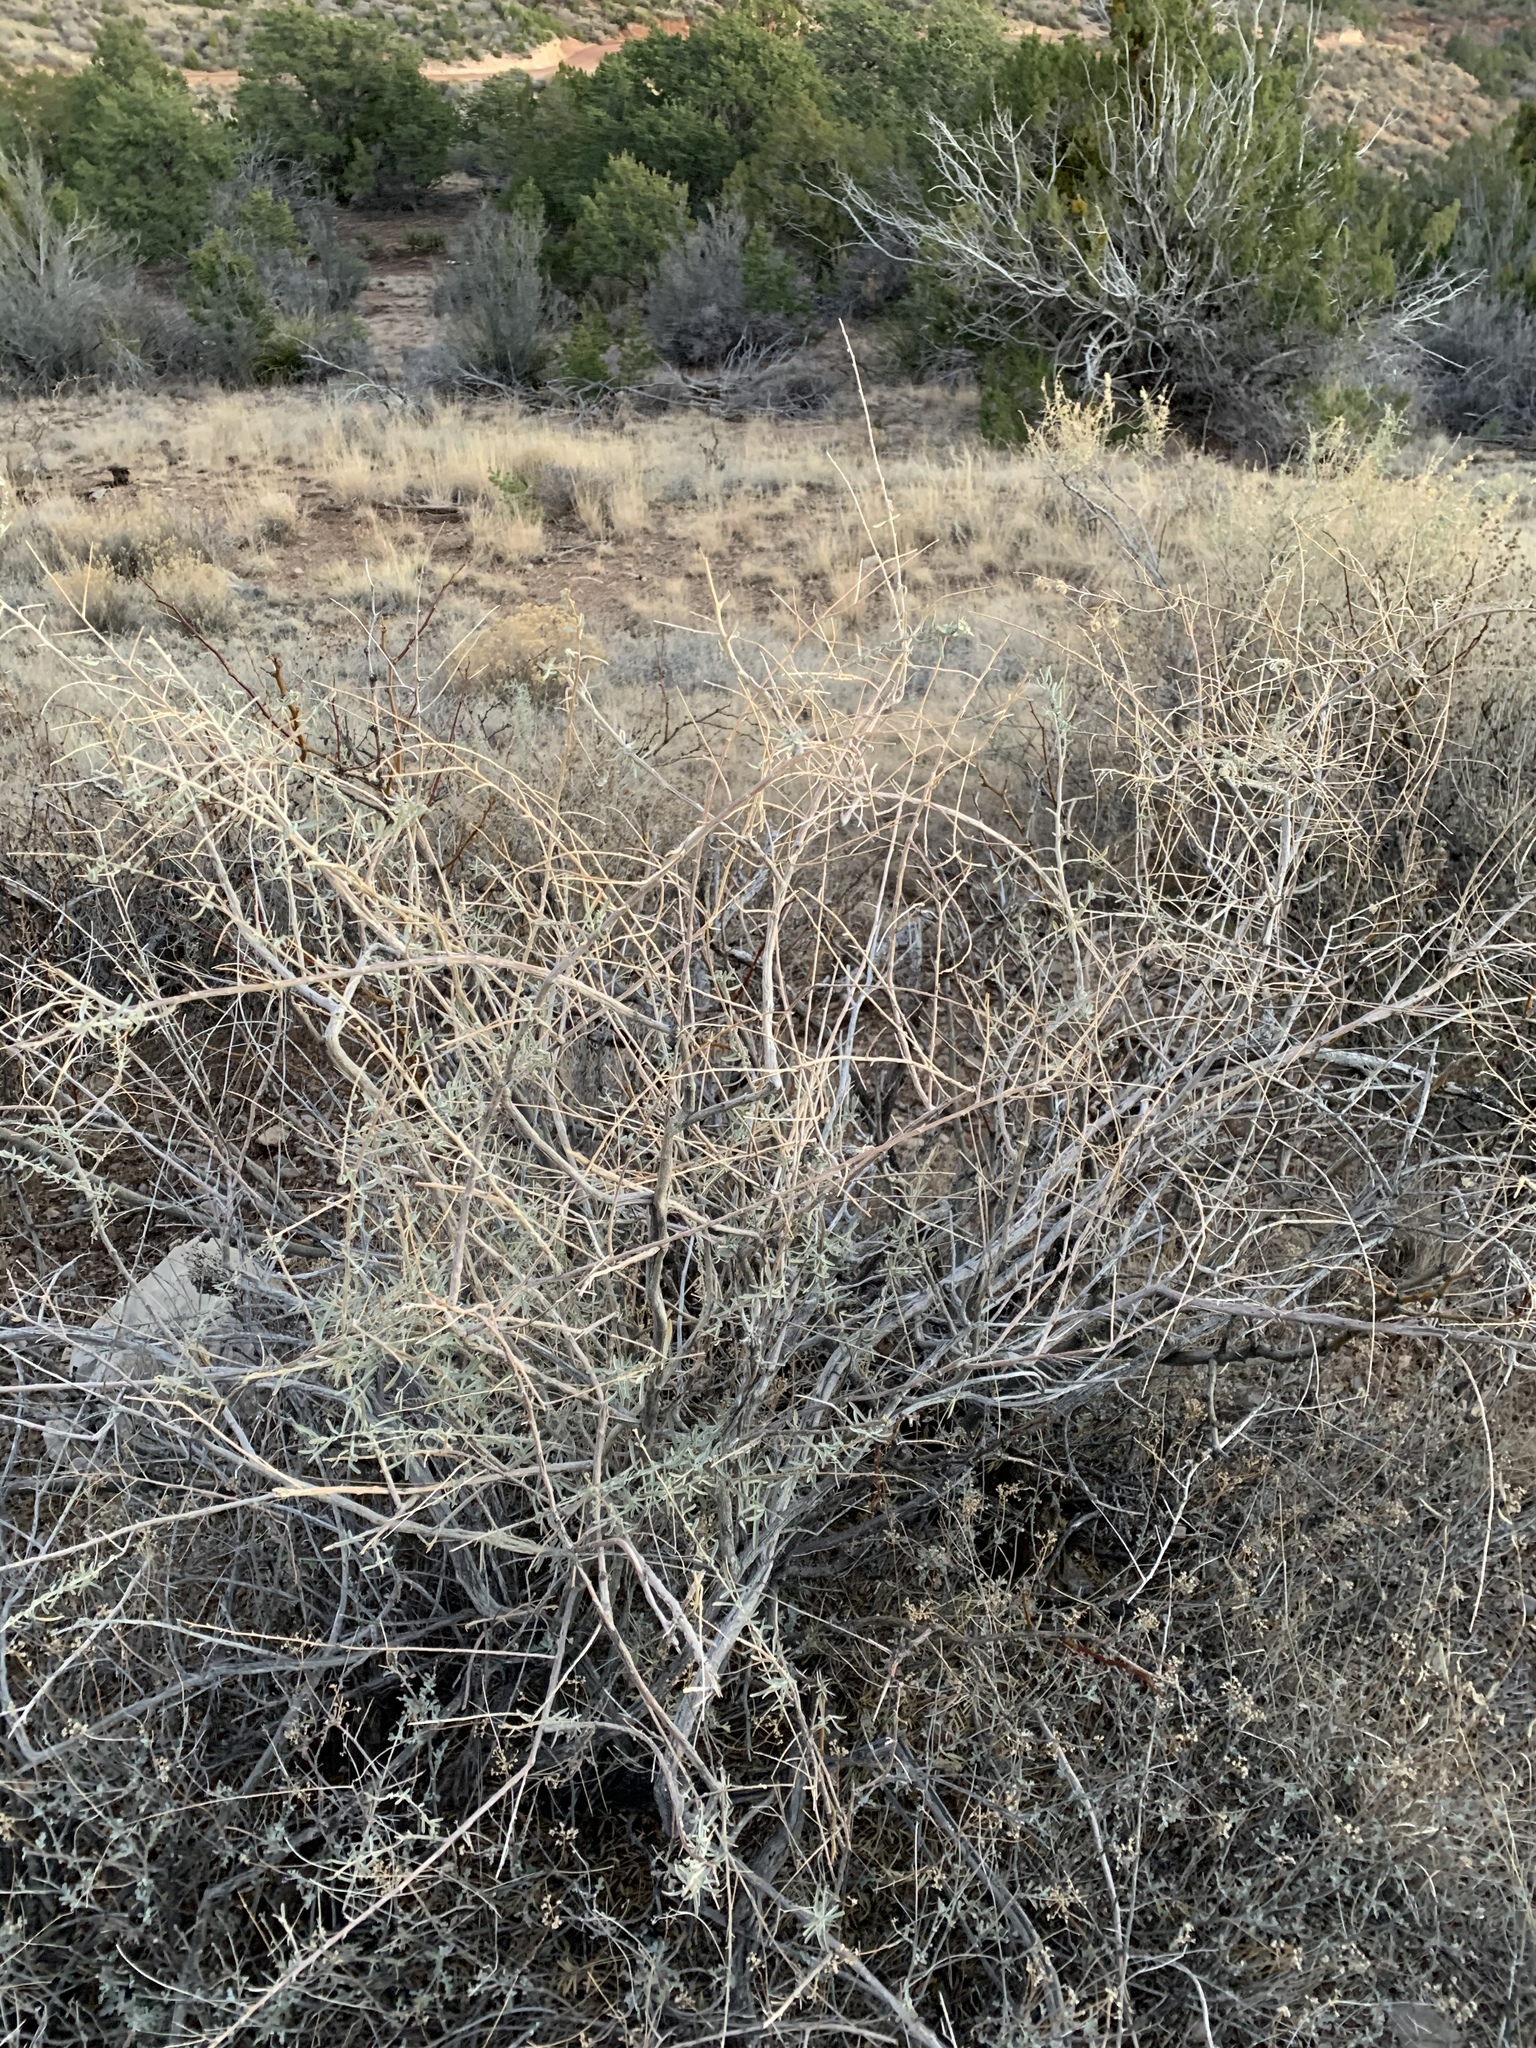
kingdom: Plantae
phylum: Tracheophyta
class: Magnoliopsida
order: Caryophyllales
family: Amaranthaceae
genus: Atriplex
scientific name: Atriplex canescens
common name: Four-wing saltbush
